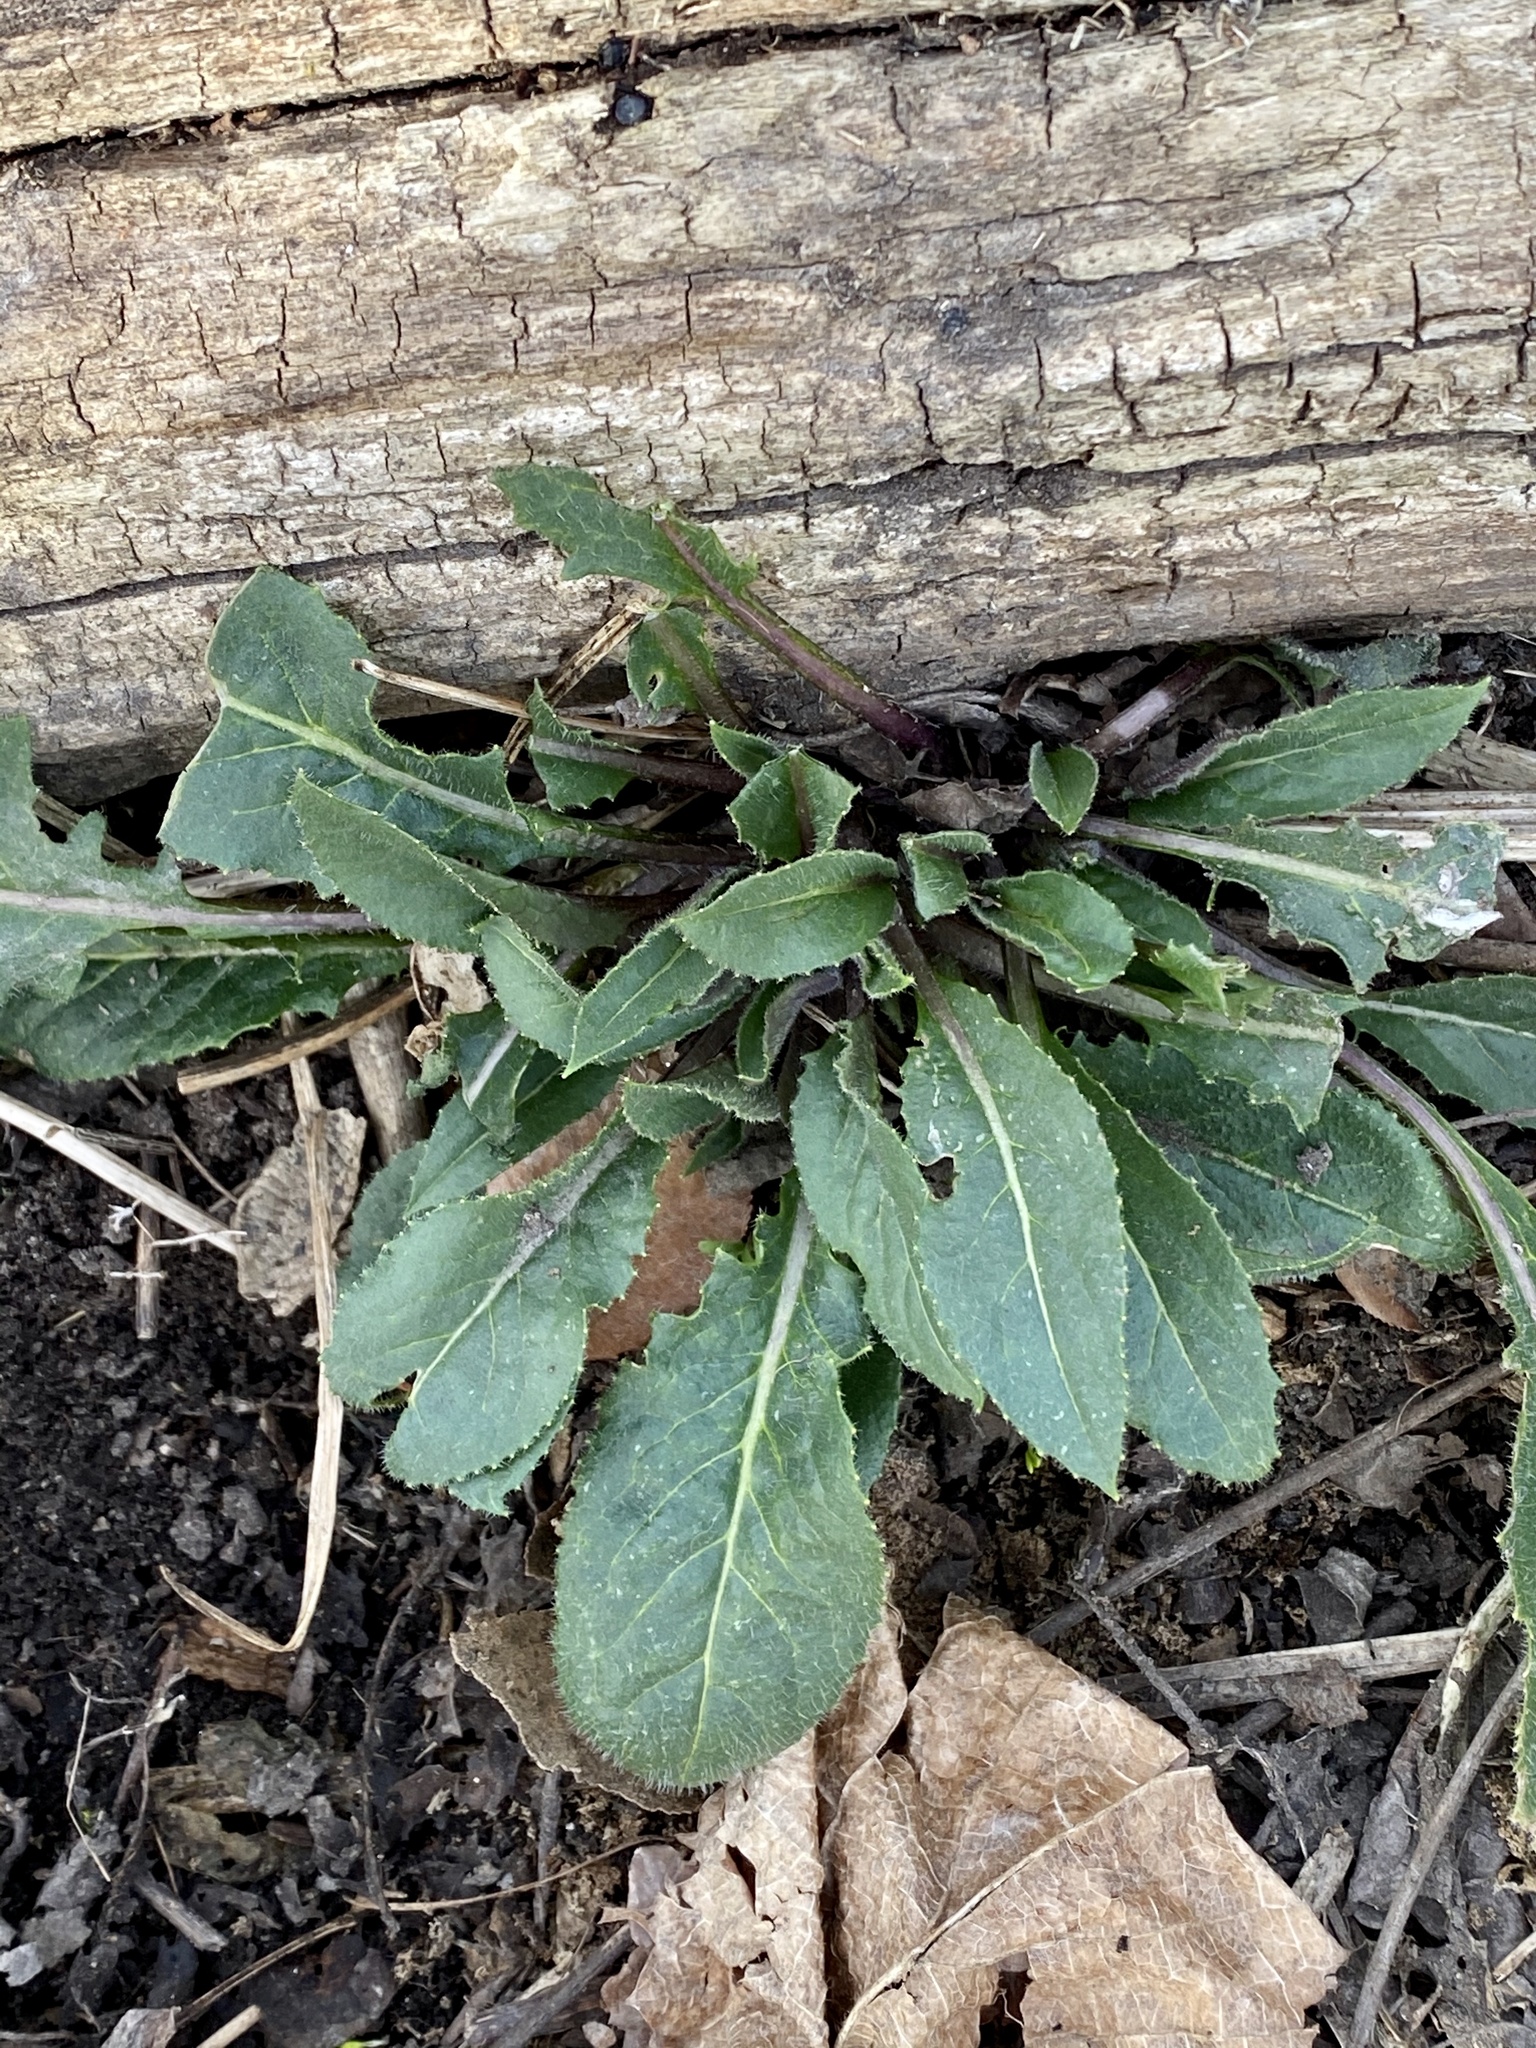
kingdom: Plantae
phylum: Tracheophyta
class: Magnoliopsida
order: Brassicales
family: Brassicaceae
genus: Hesperis
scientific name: Hesperis matronalis
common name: Dame's-violet
